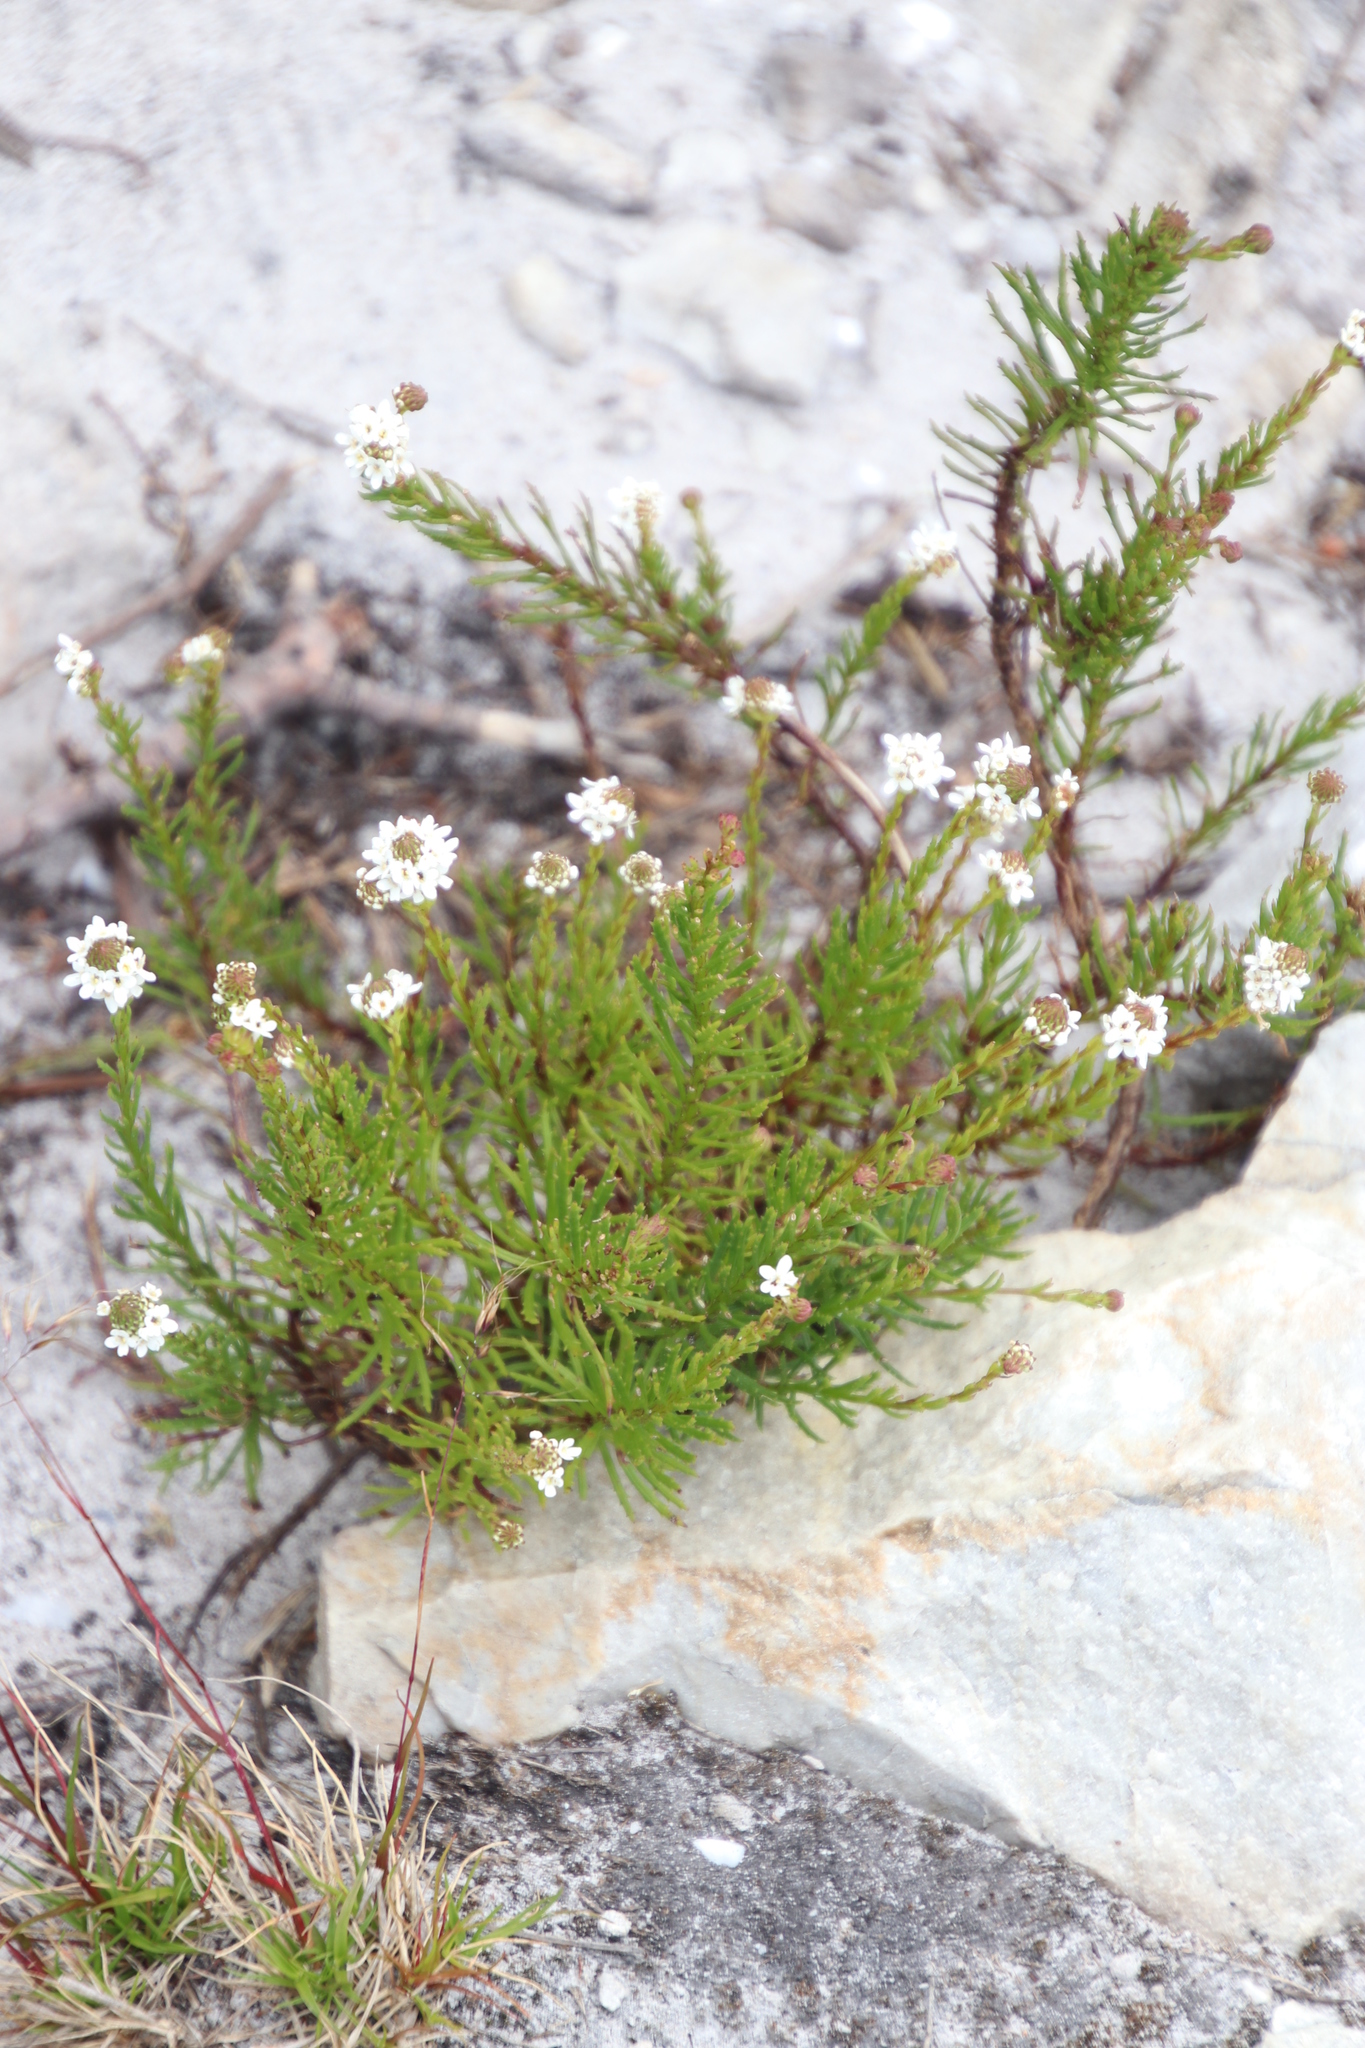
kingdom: Plantae
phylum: Tracheophyta
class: Magnoliopsida
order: Lamiales
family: Scrophulariaceae
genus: Pseudoselago
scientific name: Pseudoselago gracilis
